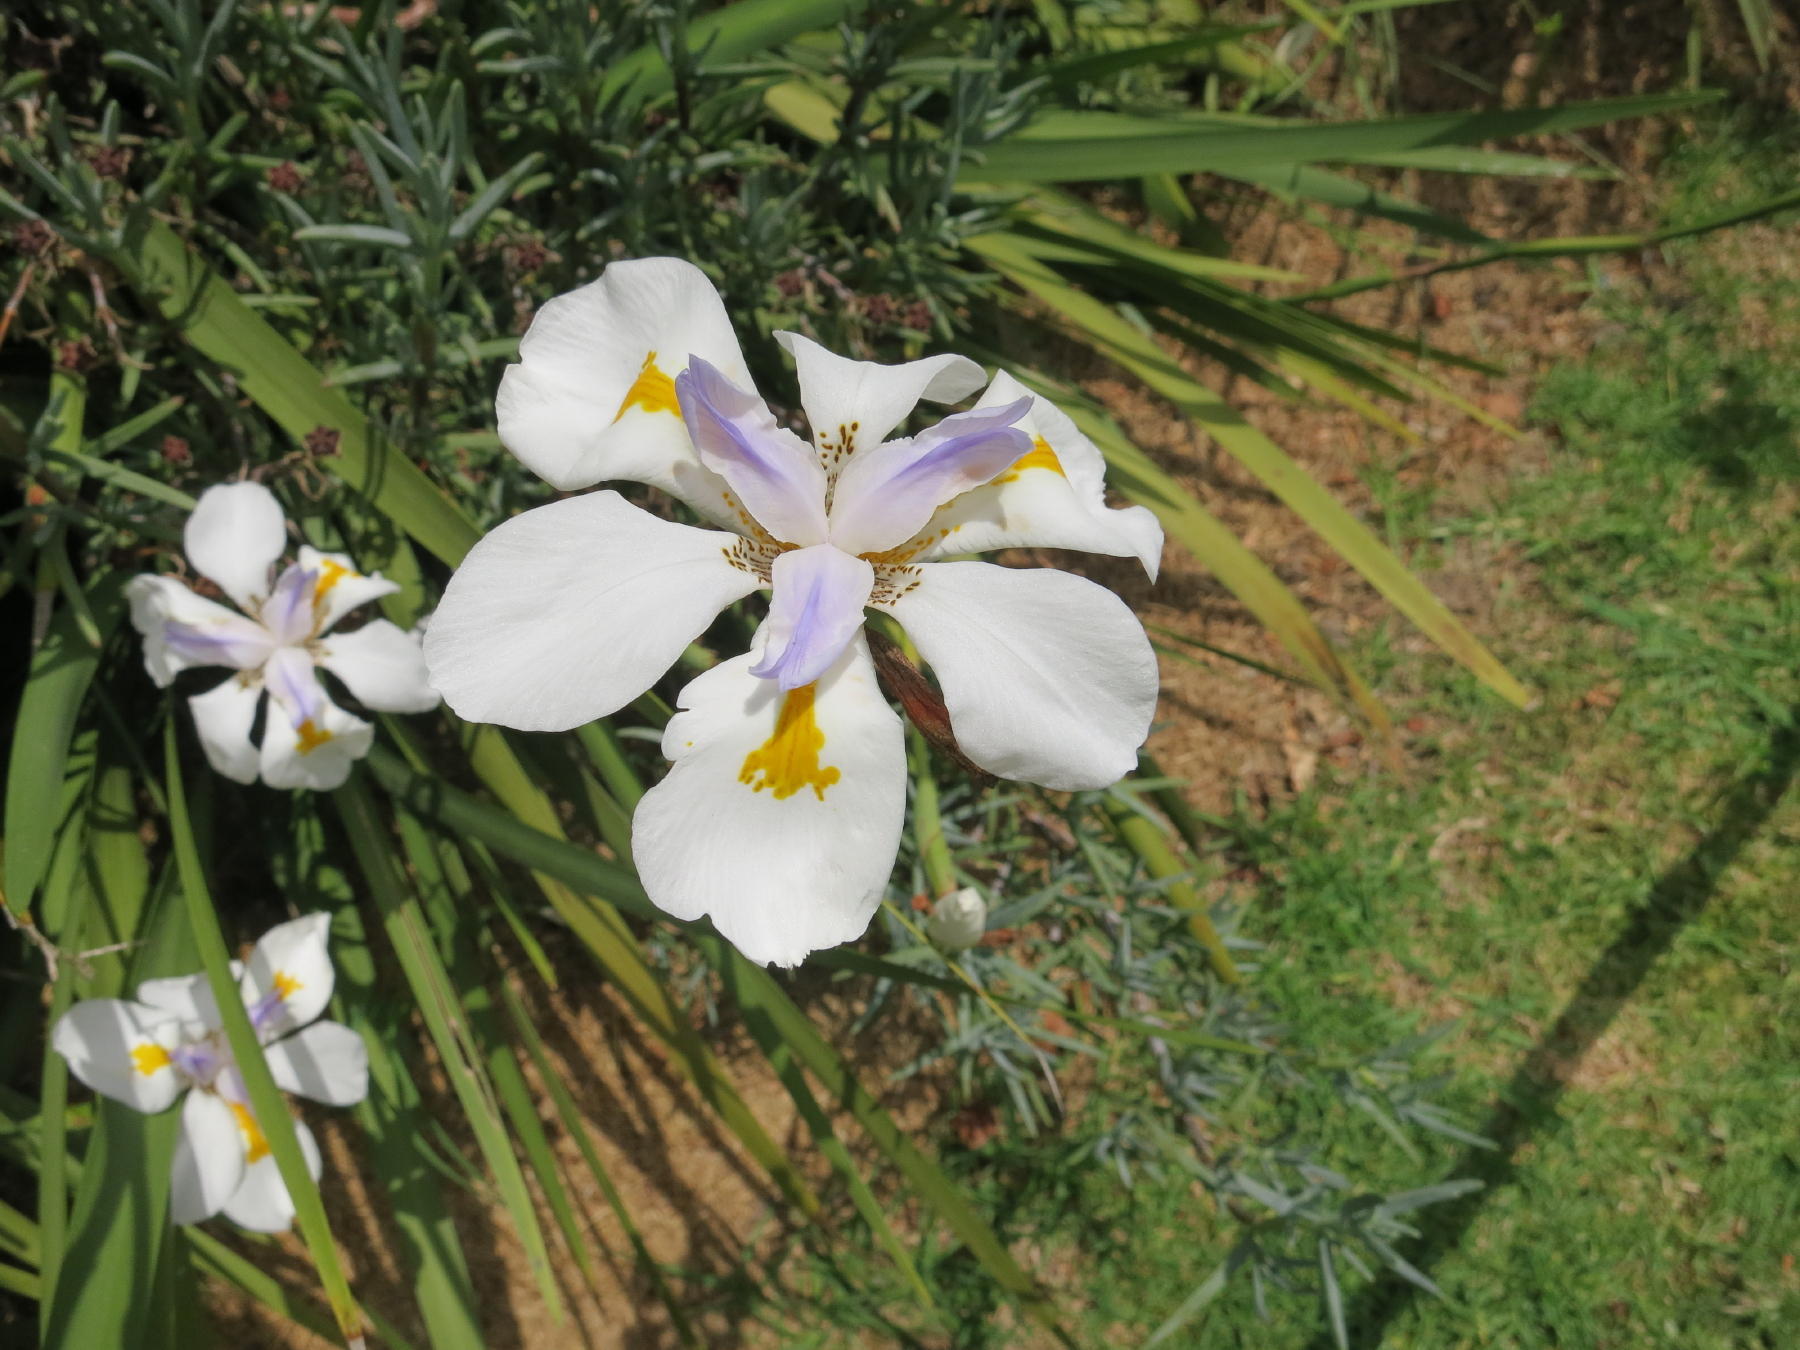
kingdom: Plantae
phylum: Tracheophyta
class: Liliopsida
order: Asparagales
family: Iridaceae
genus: Dietes
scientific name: Dietes grandiflora
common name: Wild iris
